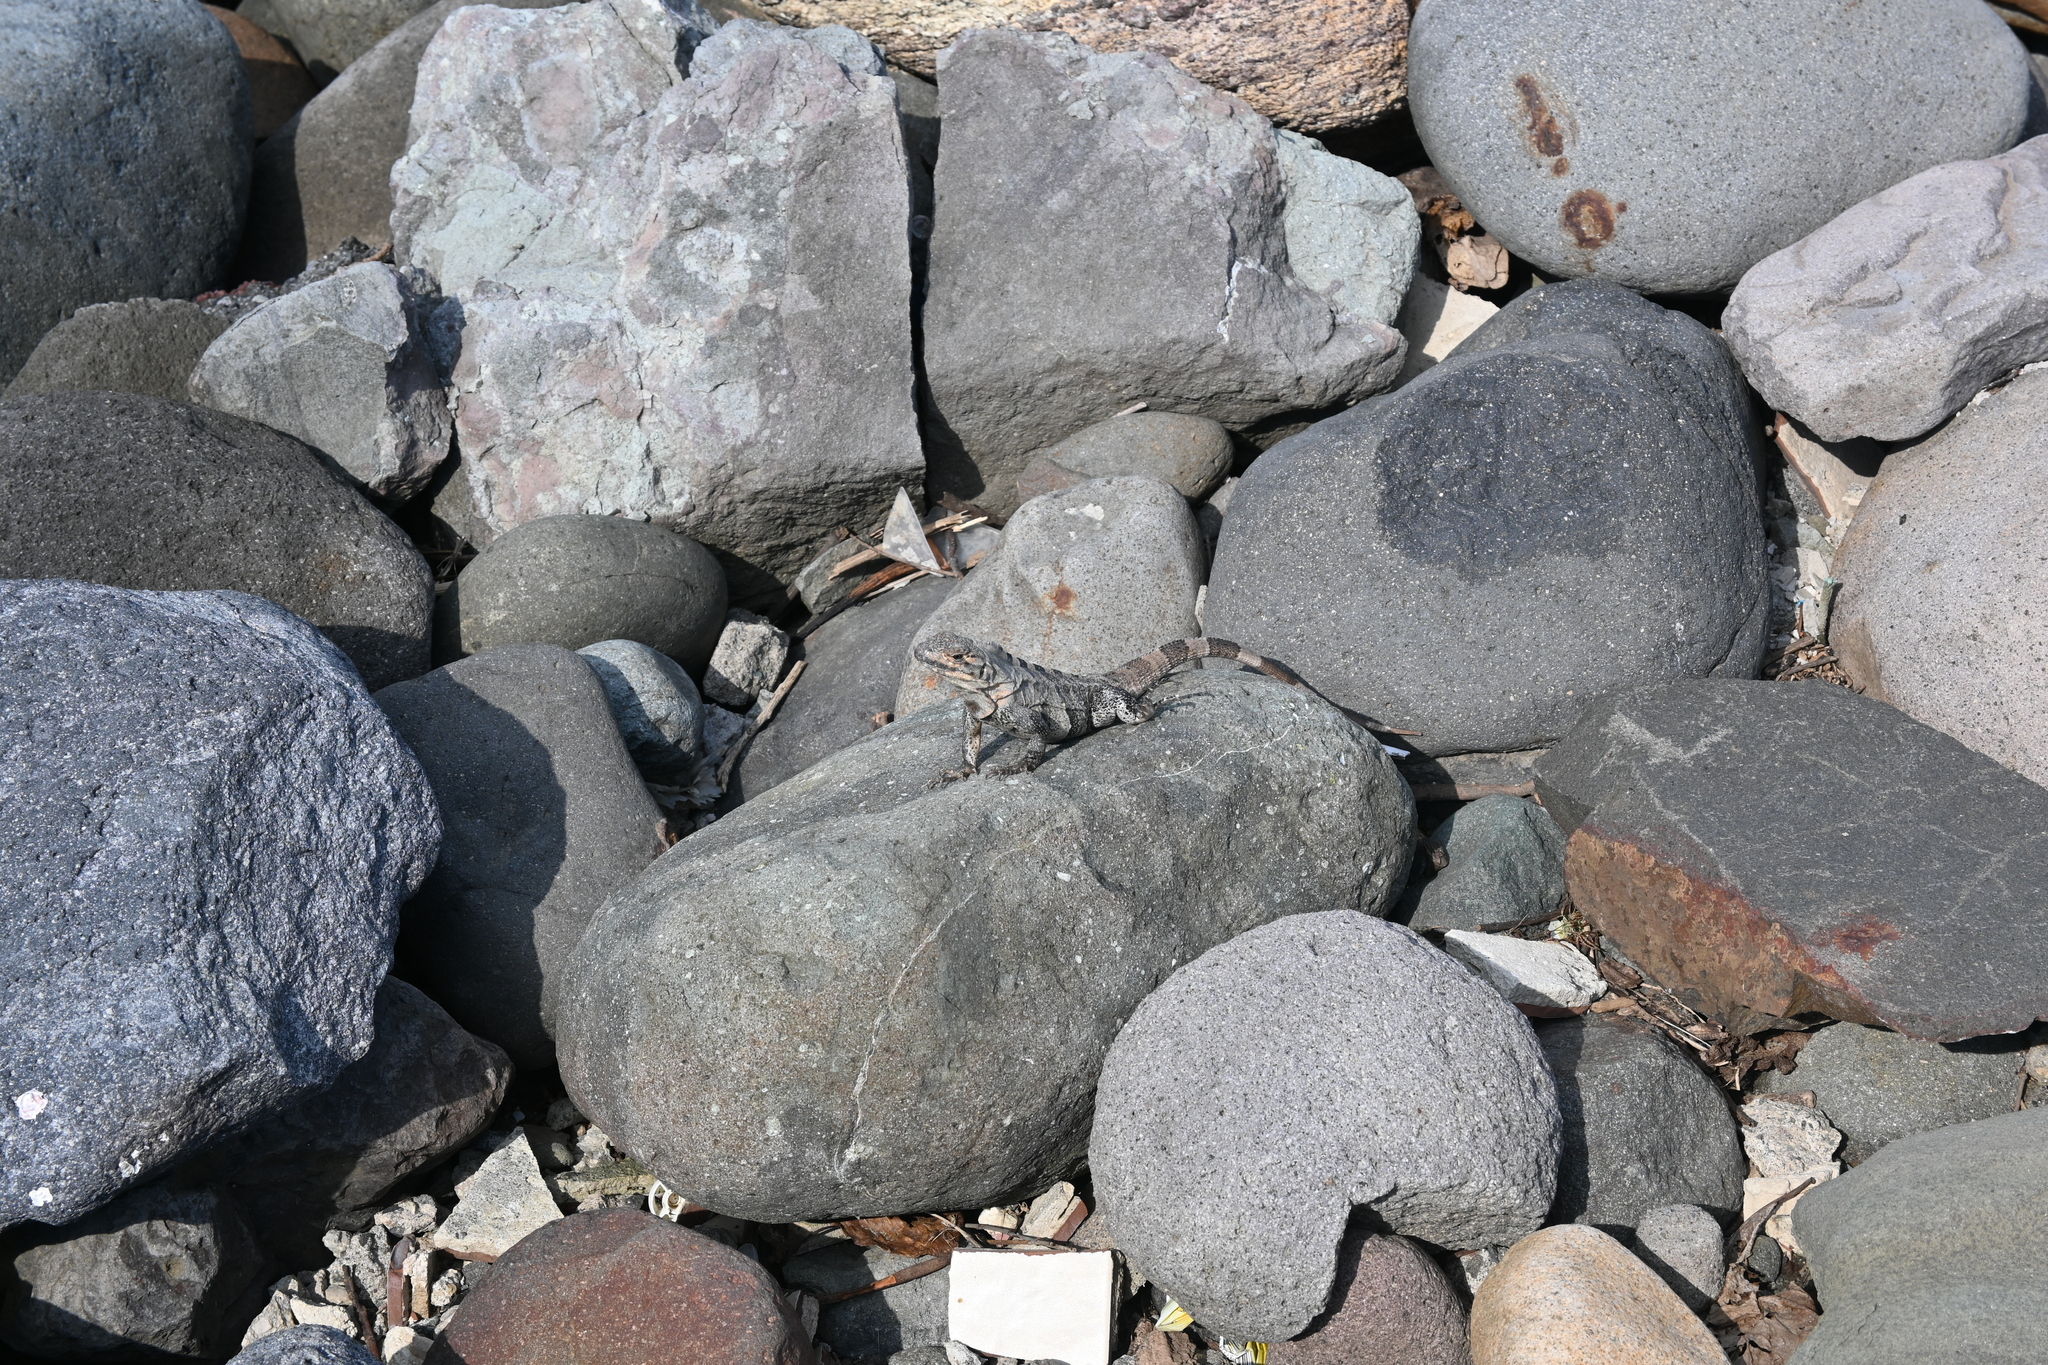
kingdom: Animalia
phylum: Chordata
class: Squamata
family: Iguanidae
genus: Ctenosaura
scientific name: Ctenosaura similis
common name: Black spiny-tailed iguana
